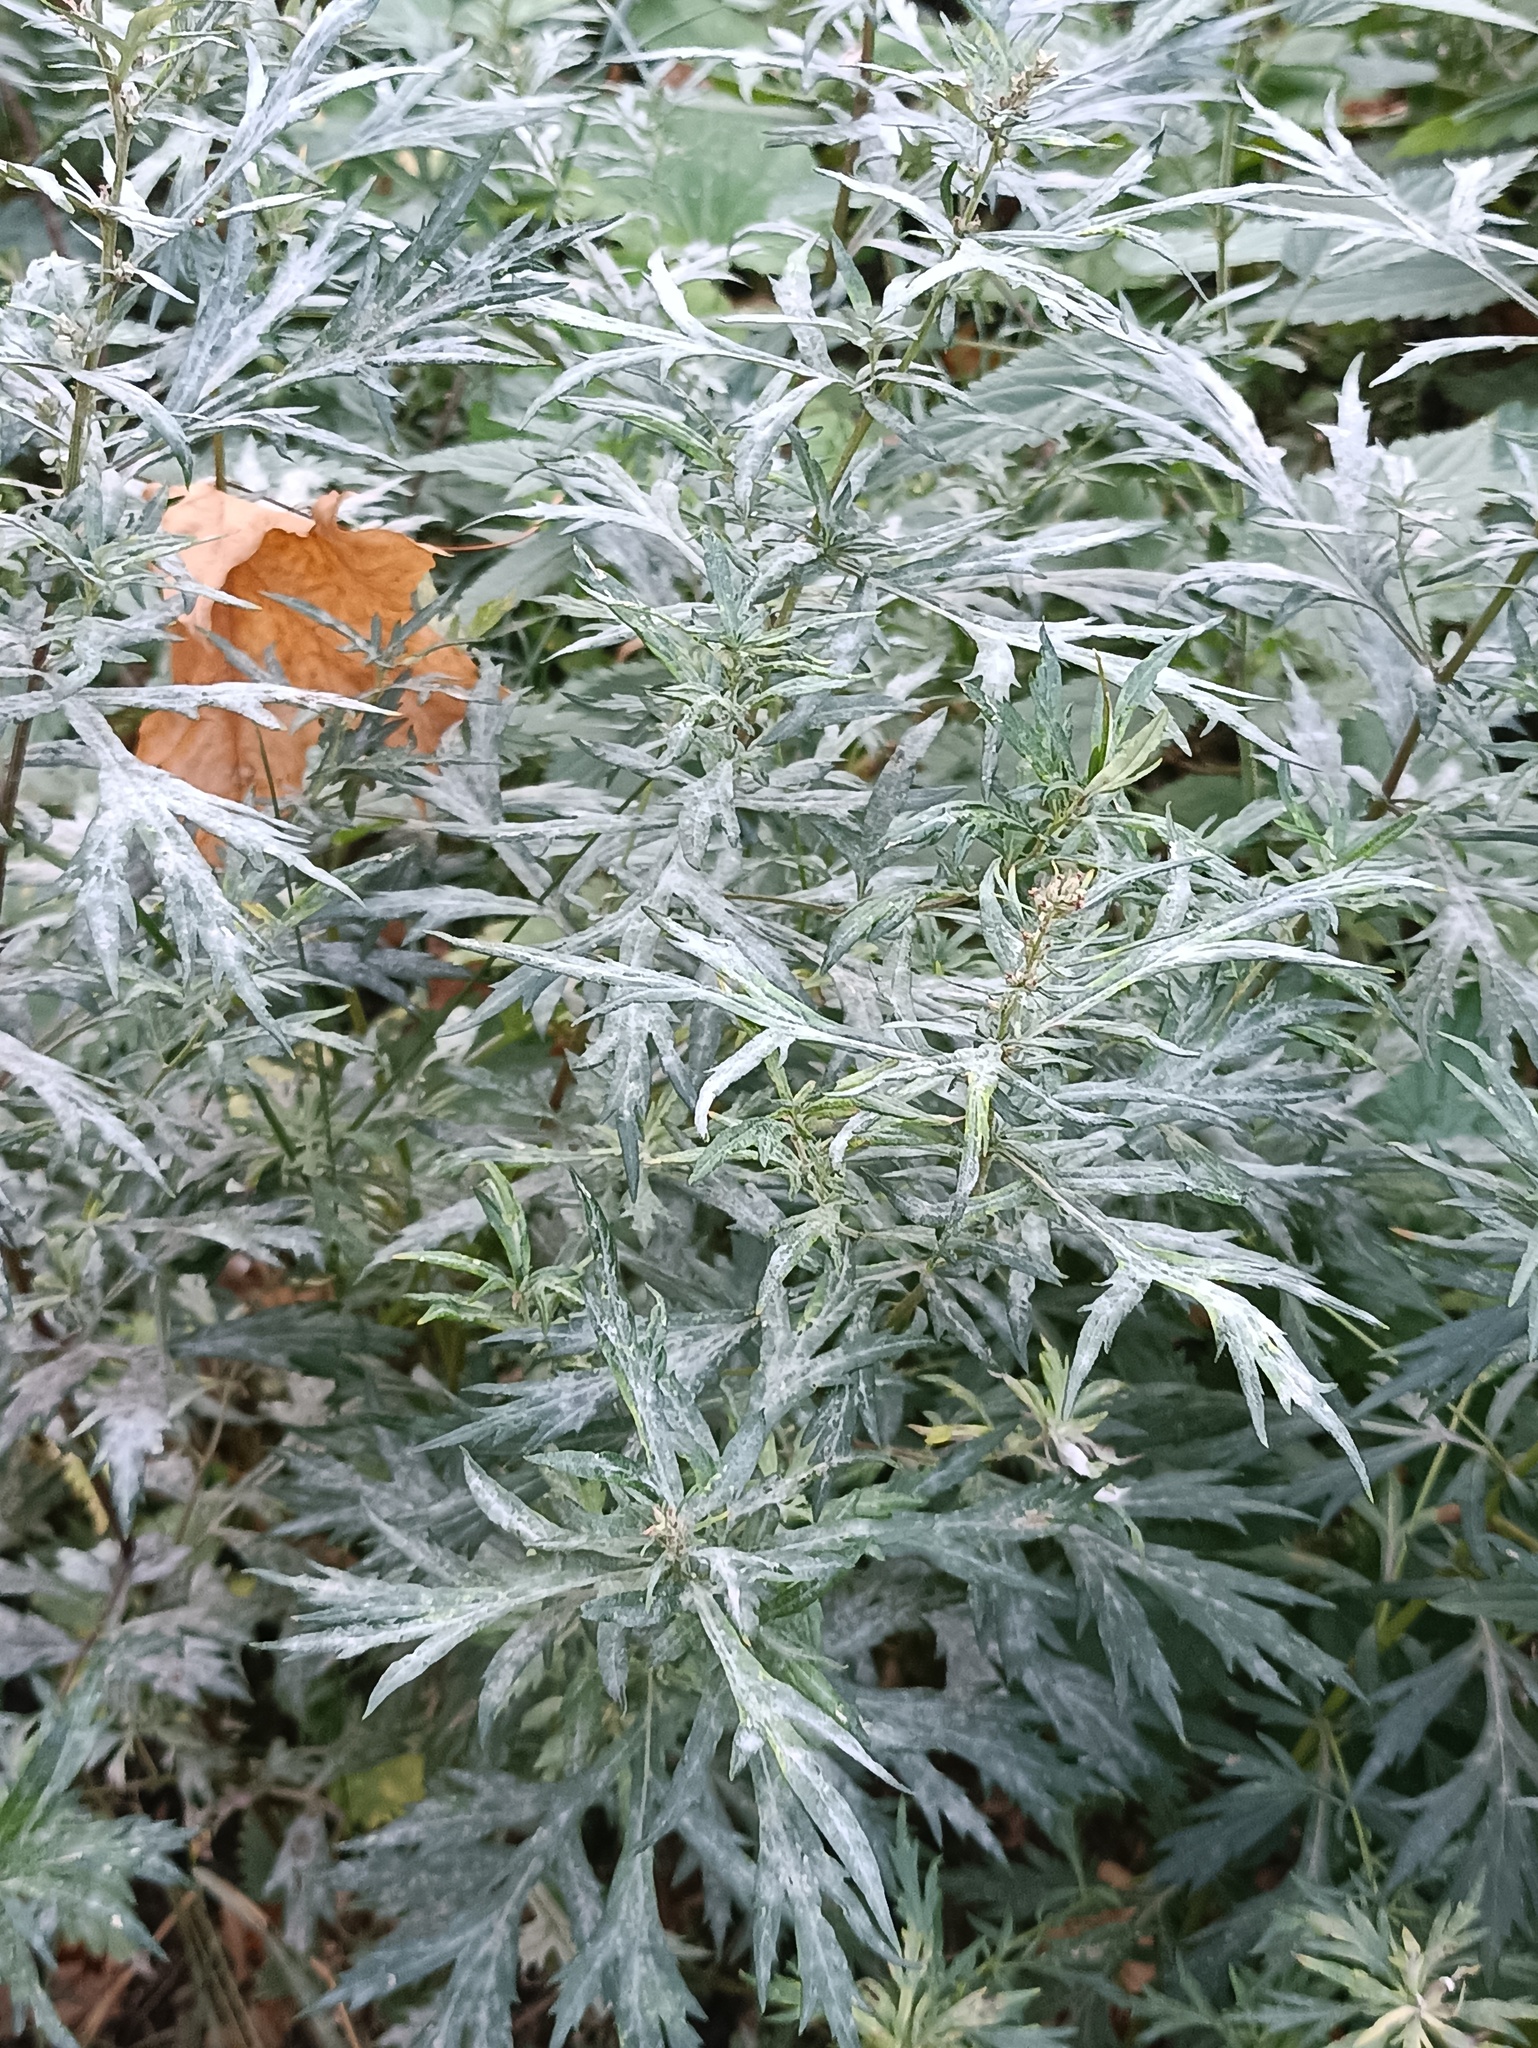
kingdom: Plantae
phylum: Tracheophyta
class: Magnoliopsida
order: Asterales
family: Asteraceae
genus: Artemisia
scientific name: Artemisia vulgaris
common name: Mugwort
